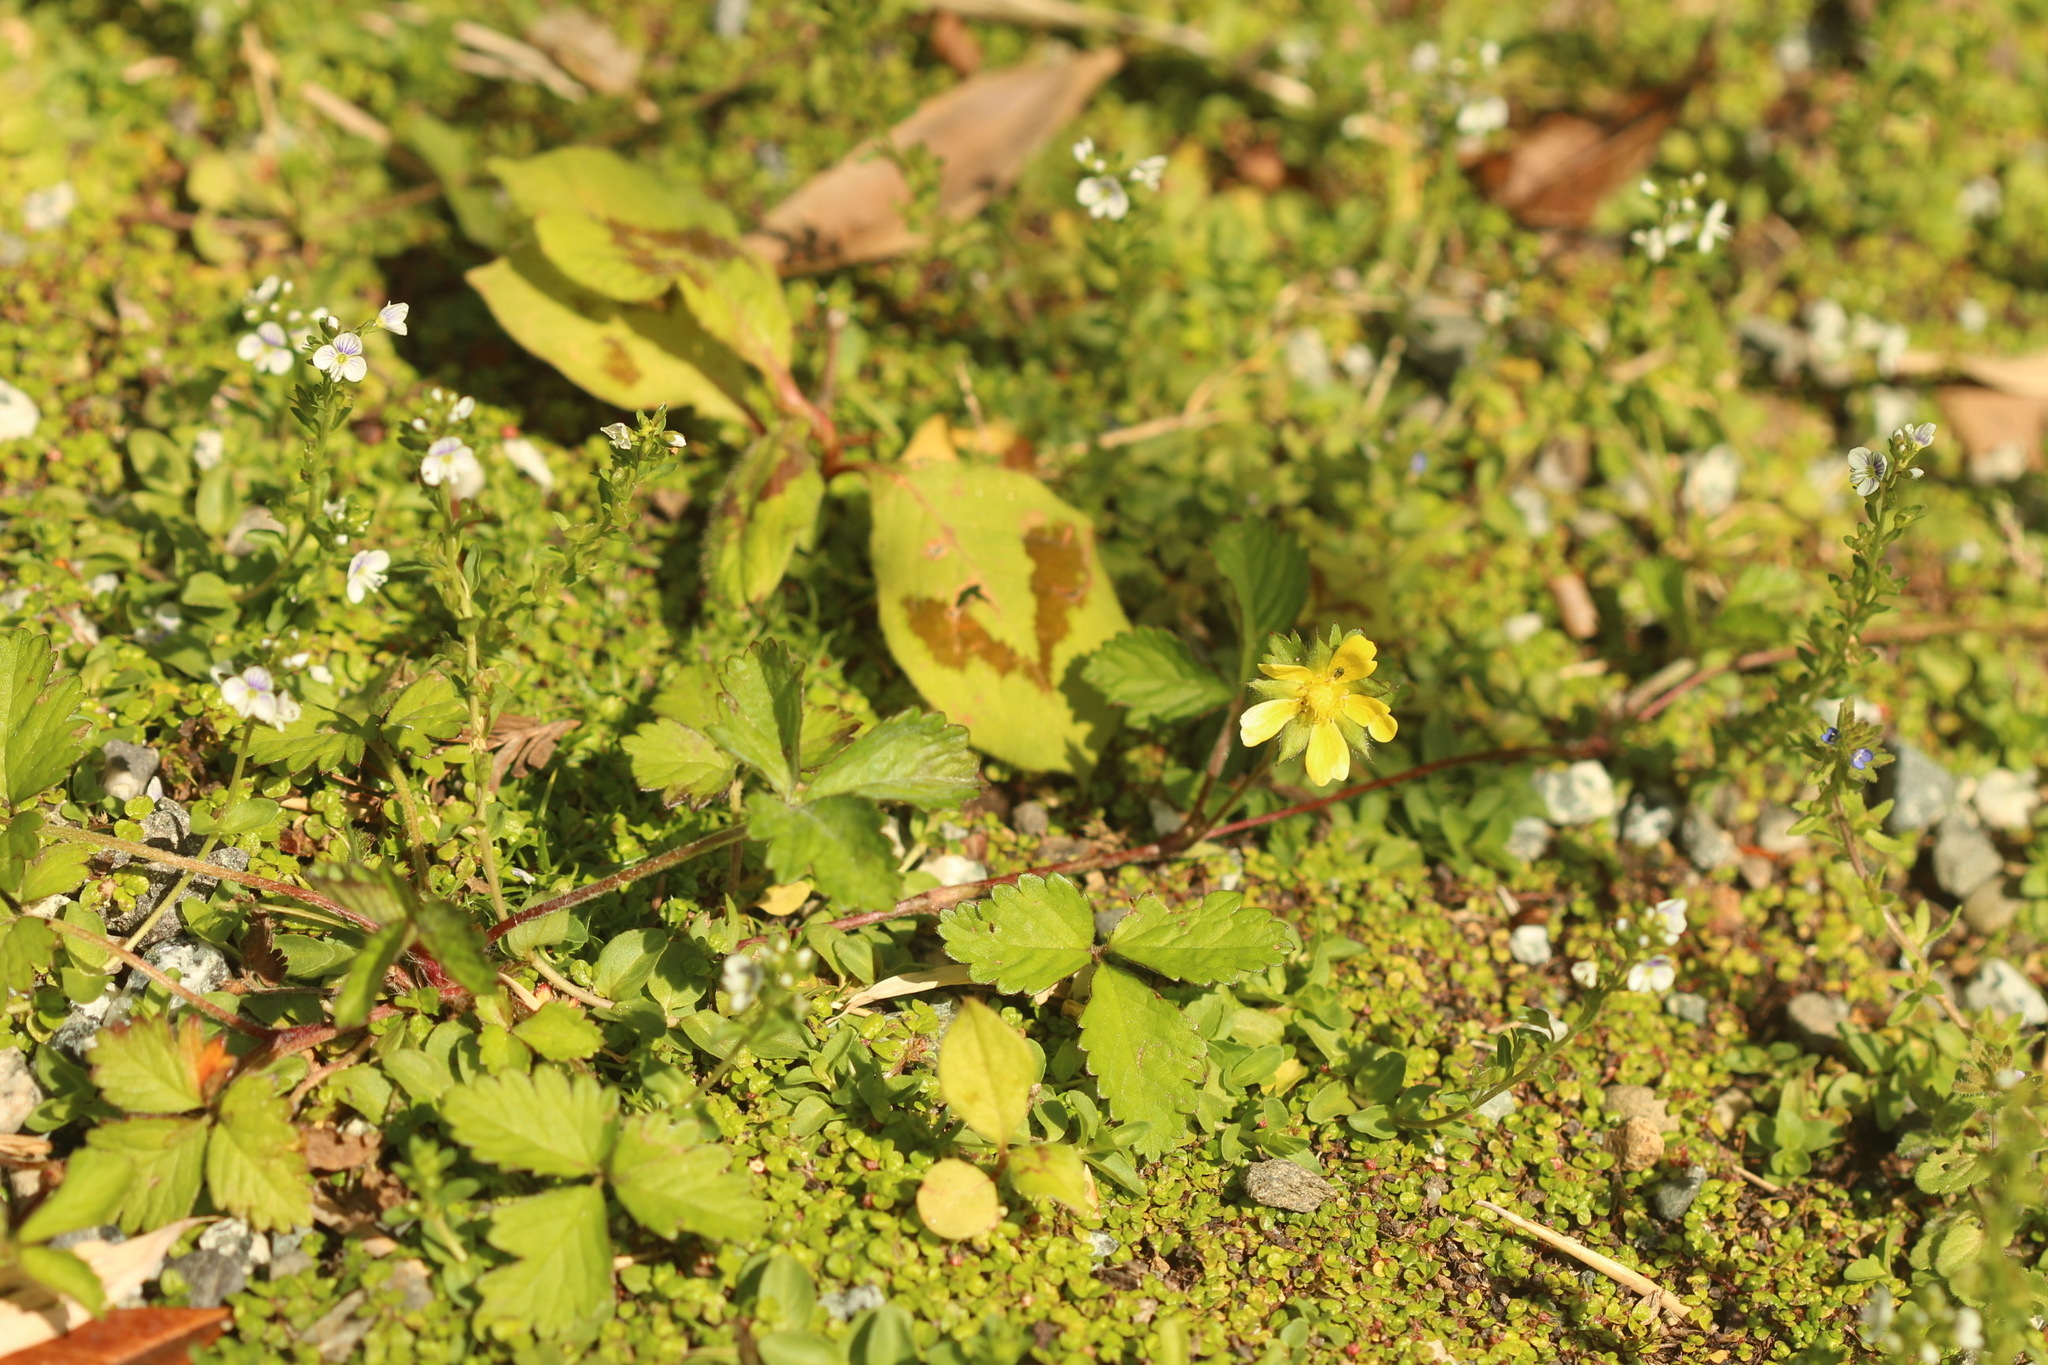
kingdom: Plantae
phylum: Tracheophyta
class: Magnoliopsida
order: Rosales
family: Rosaceae
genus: Potentilla
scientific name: Potentilla indica
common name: Yellow-flowered strawberry
